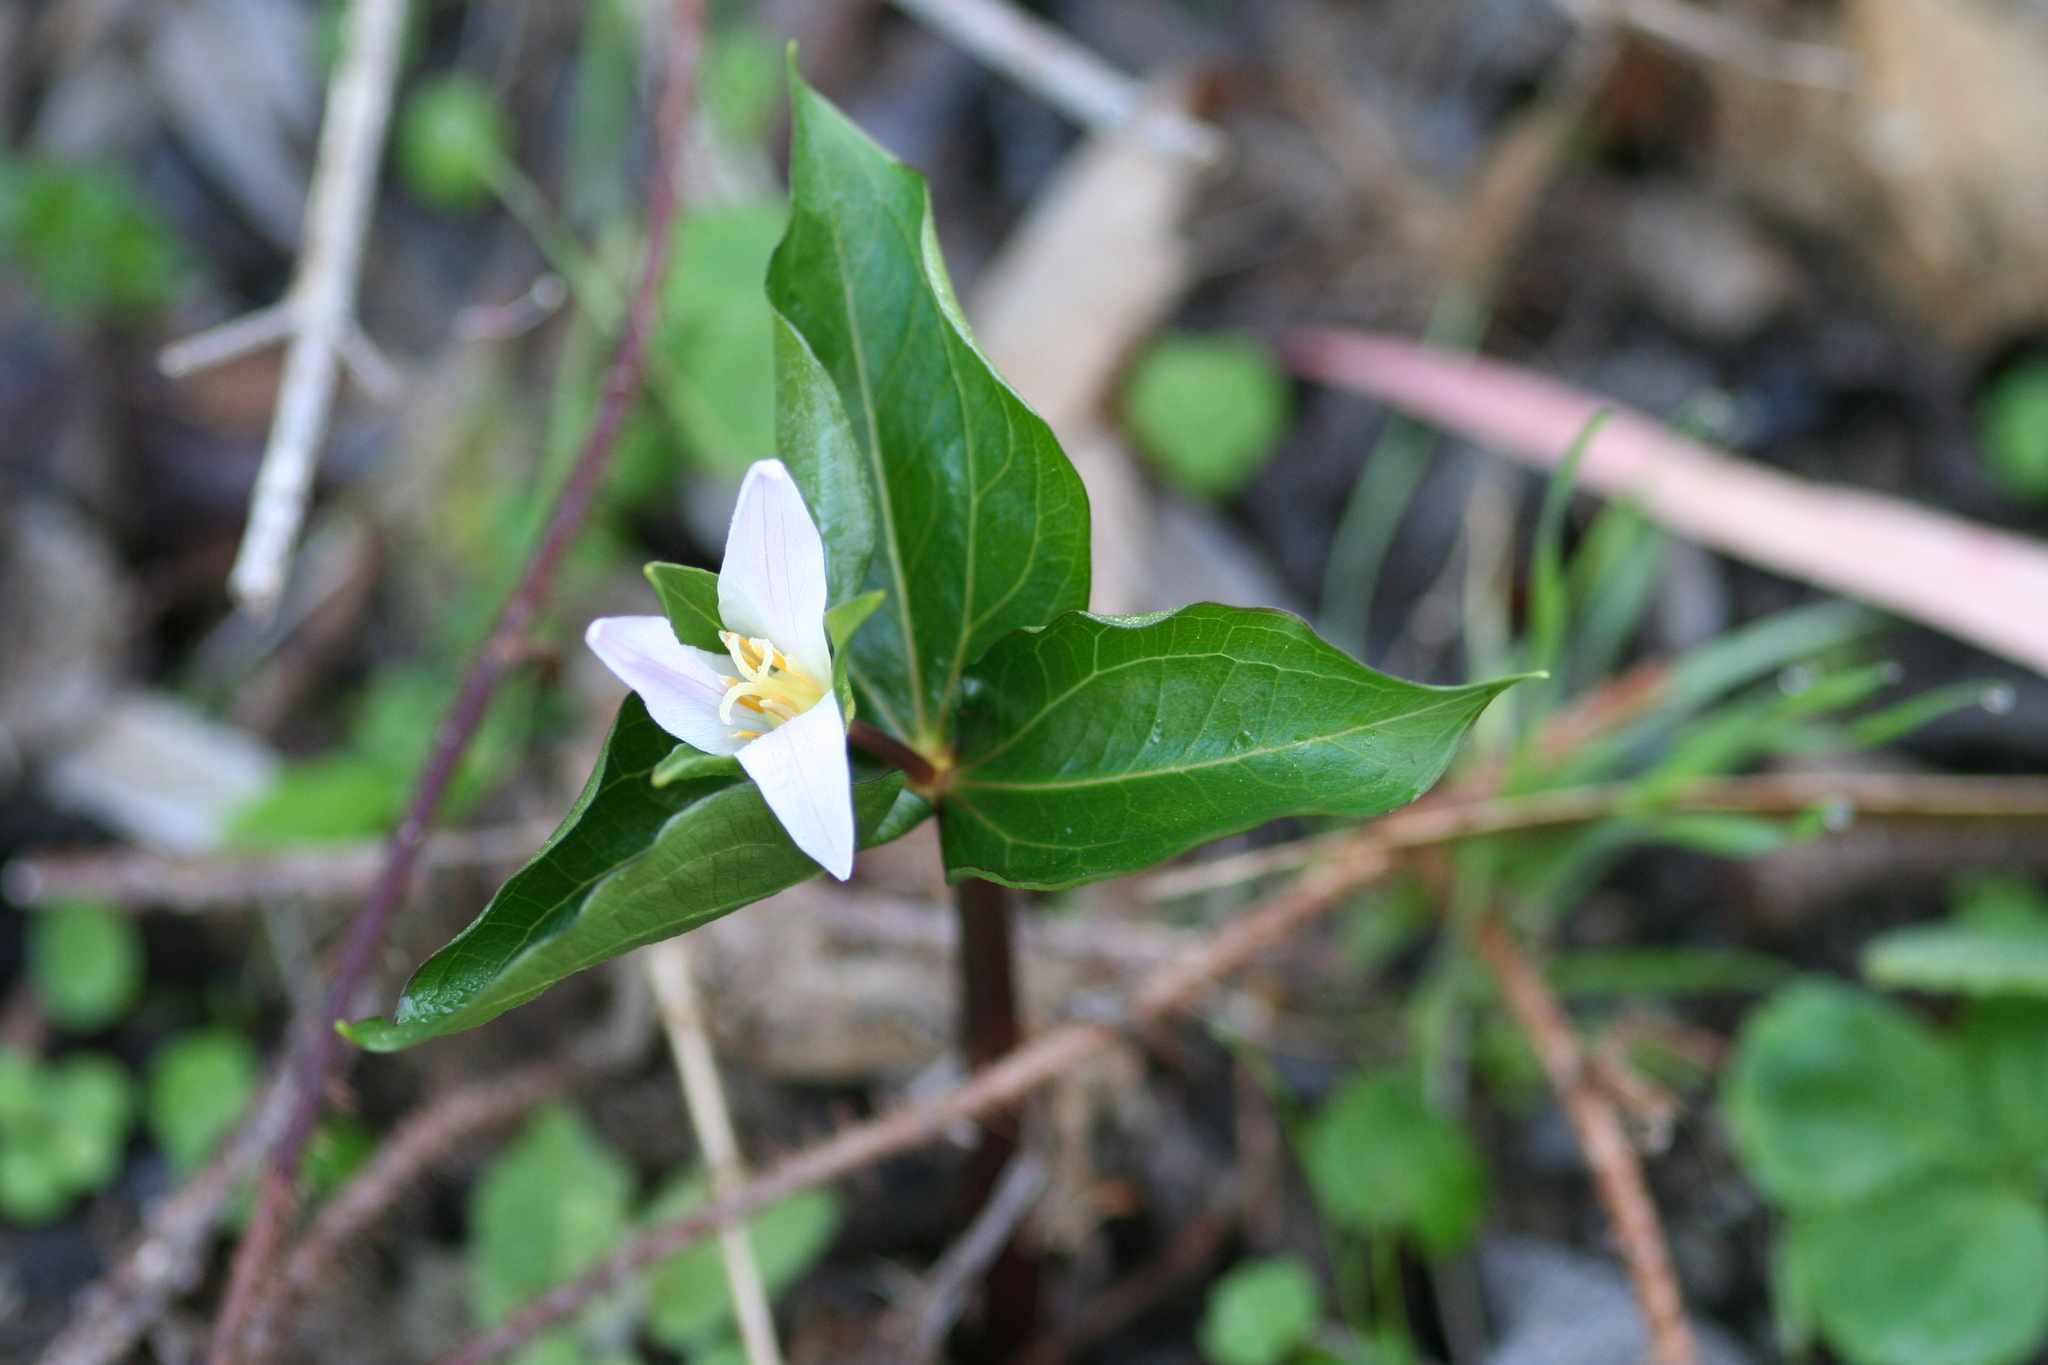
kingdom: Plantae
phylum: Tracheophyta
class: Liliopsida
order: Liliales
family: Melanthiaceae
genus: Trillium
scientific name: Trillium ovatum
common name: Pacific trillium
